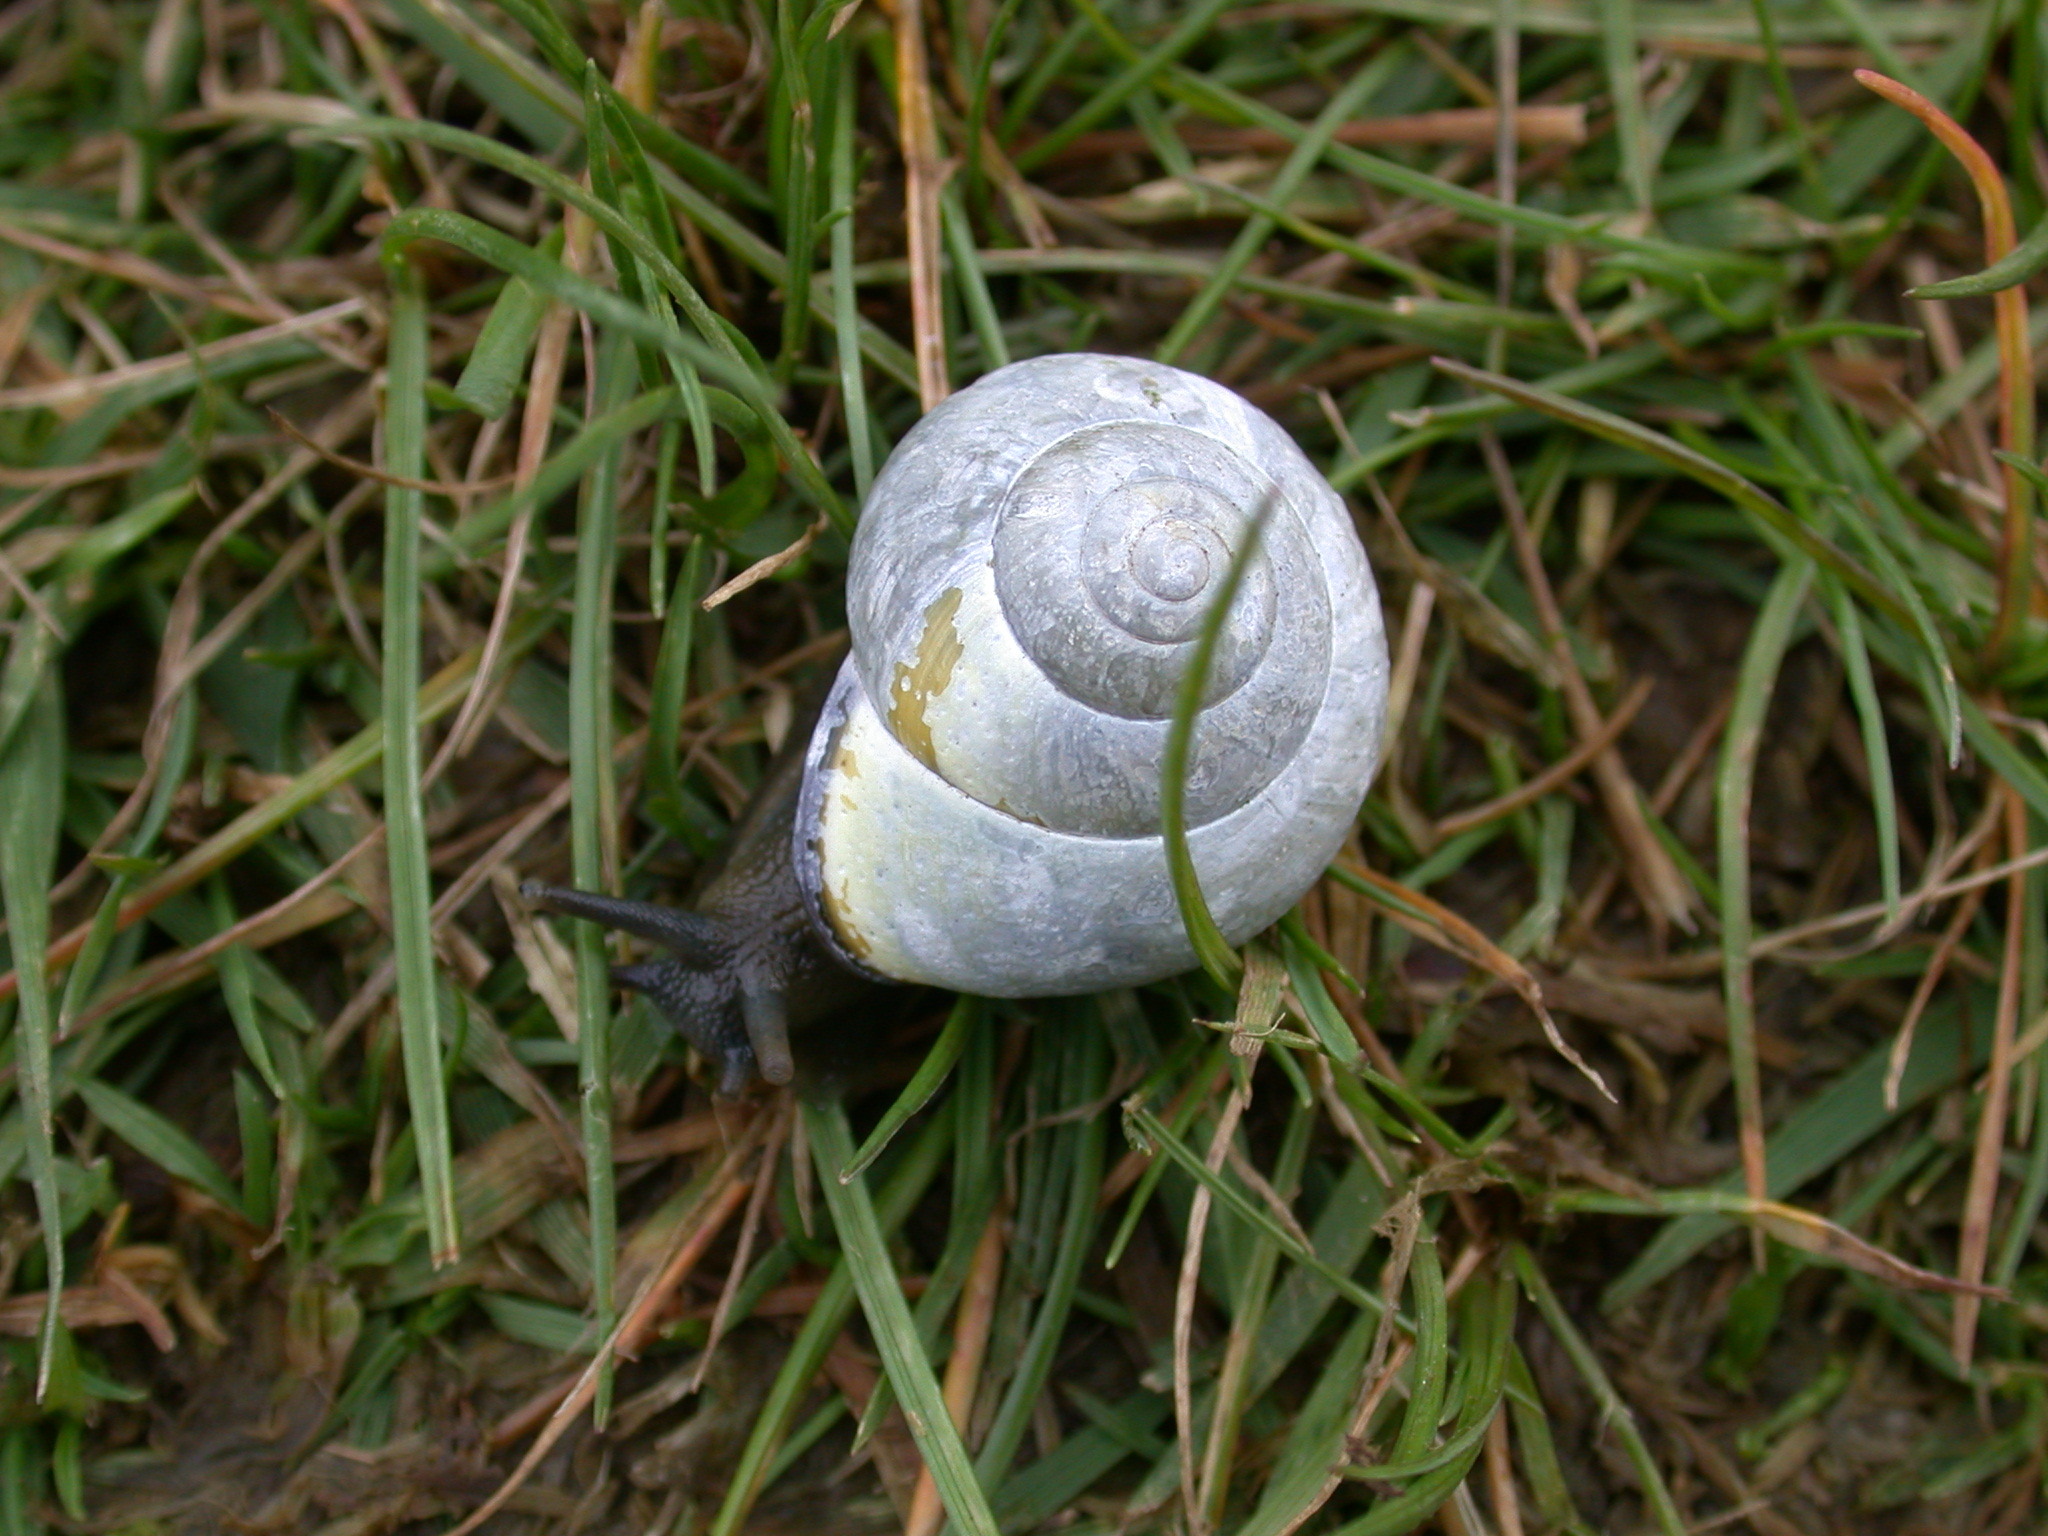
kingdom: Animalia
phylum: Mollusca
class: Gastropoda
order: Stylommatophora
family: Helicidae
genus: Cepaea
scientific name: Cepaea nemoralis
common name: Grovesnail
